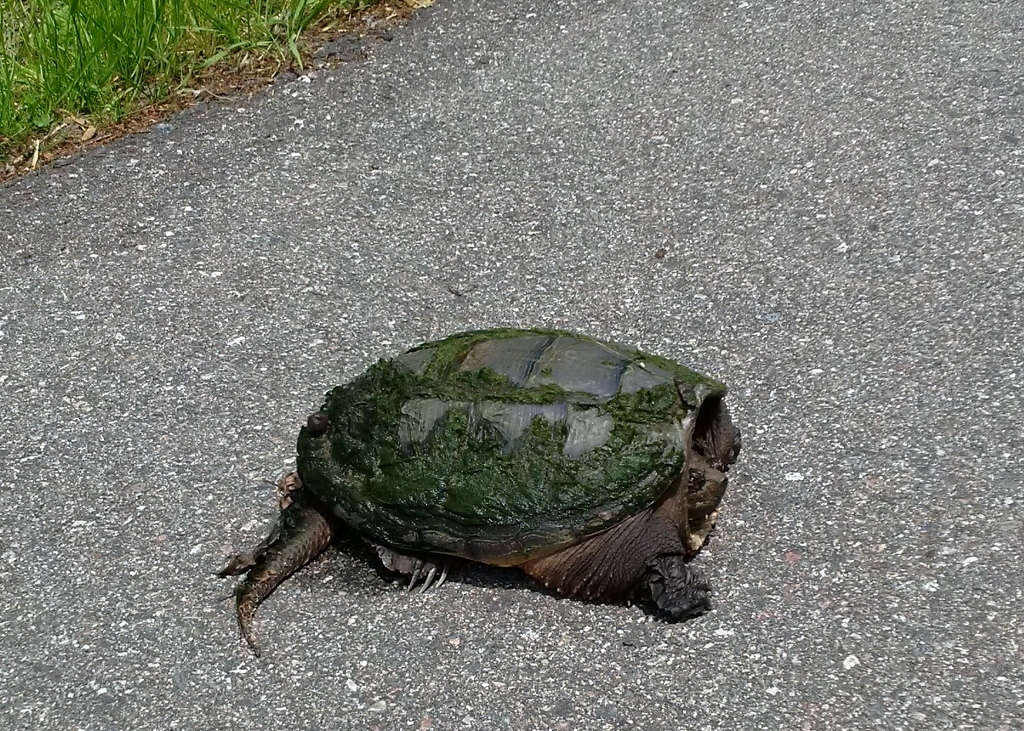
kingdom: Animalia
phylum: Chordata
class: Testudines
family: Chelydridae
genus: Chelydra
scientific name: Chelydra serpentina
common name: Common snapping turtle
